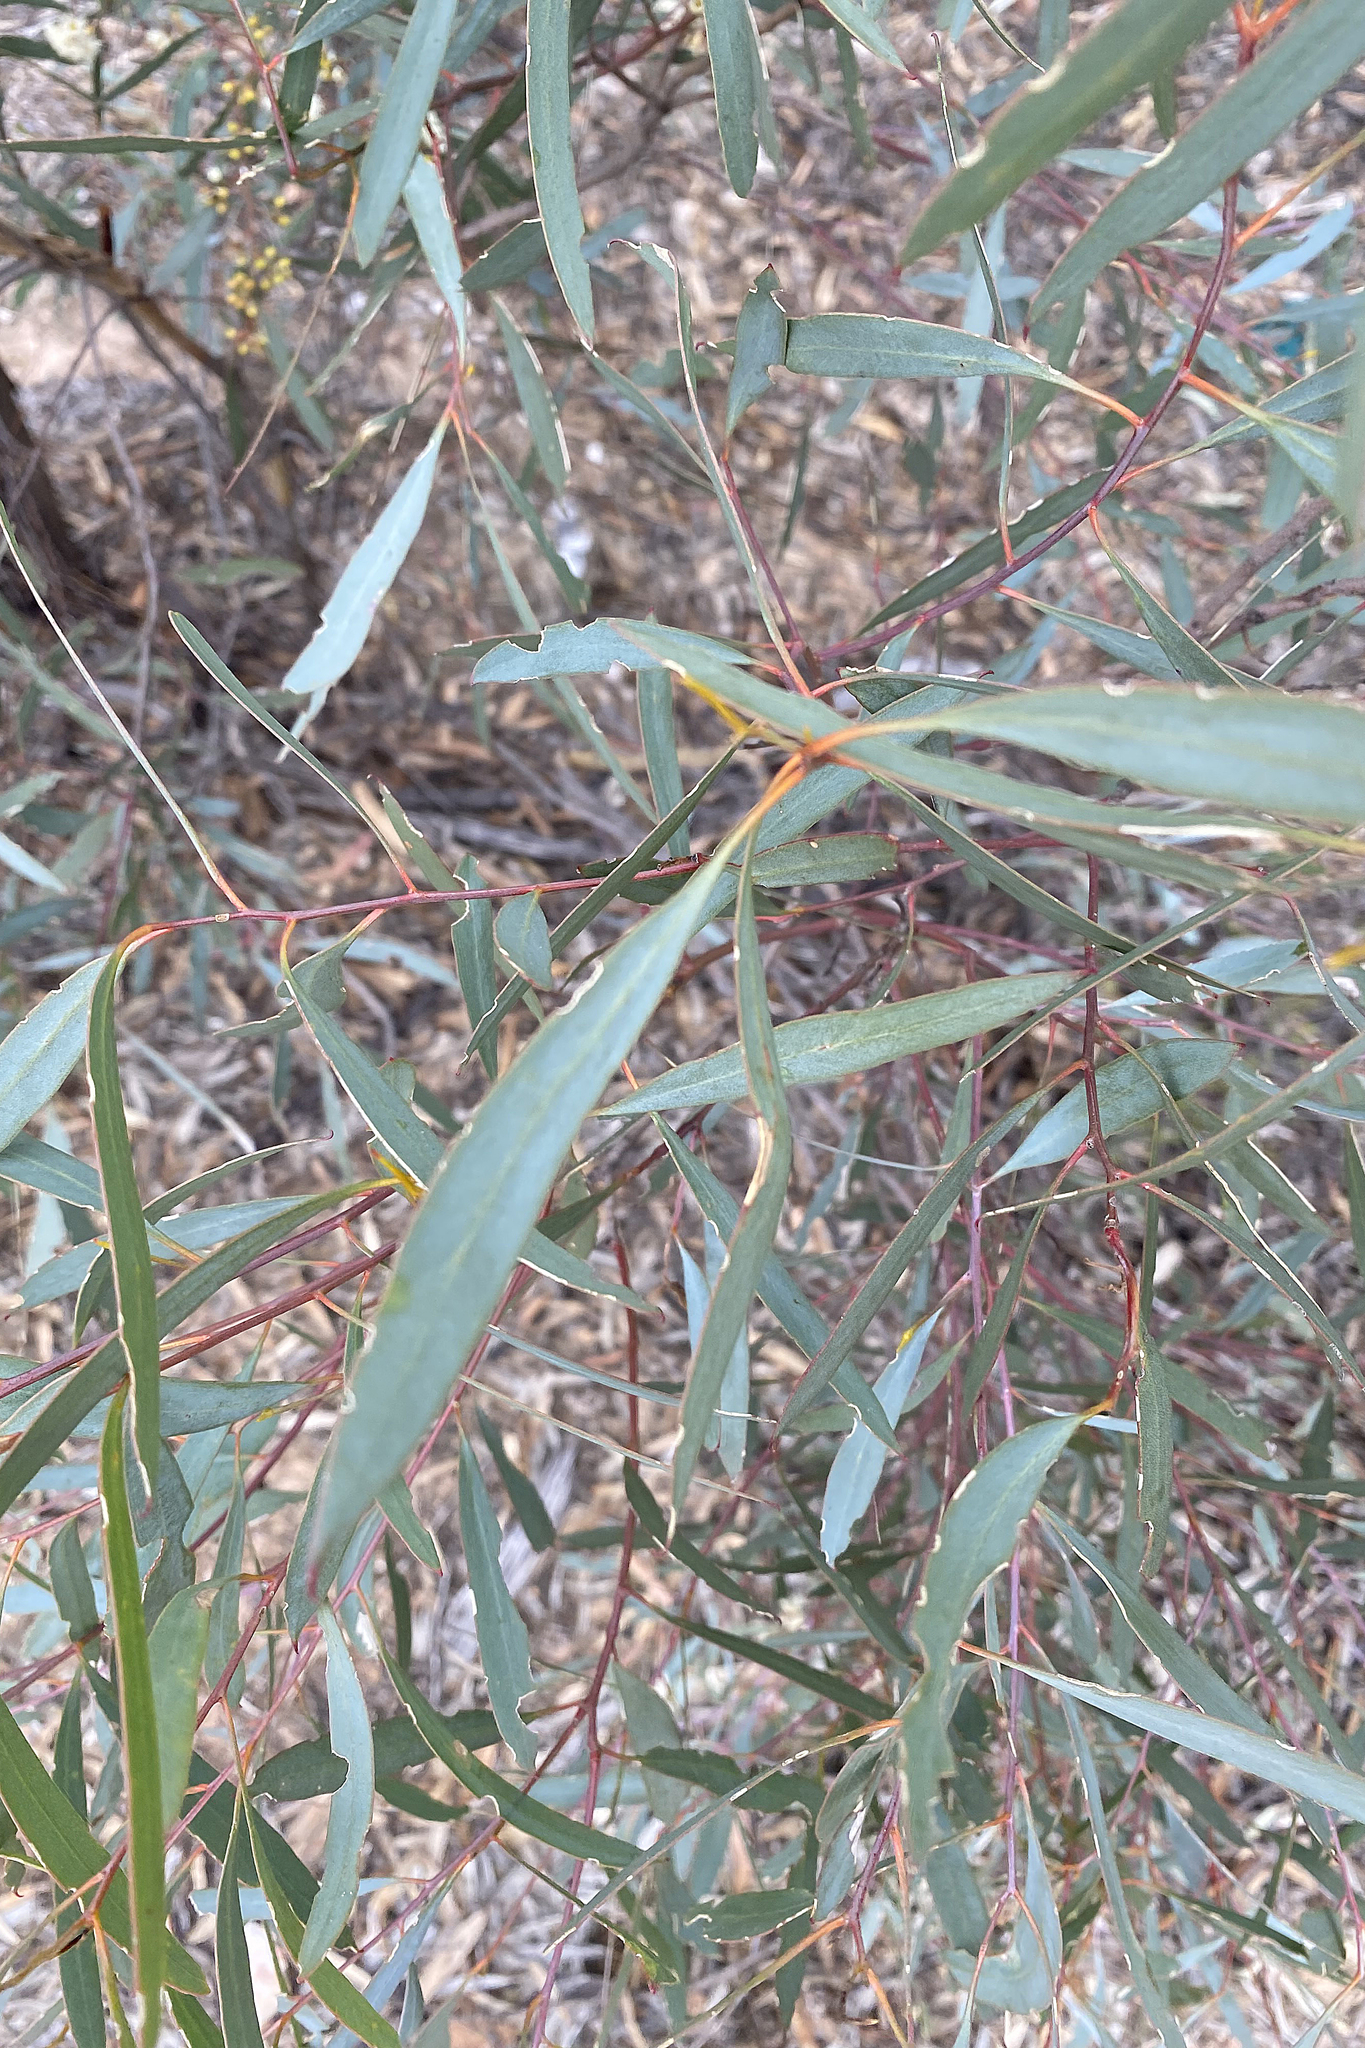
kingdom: Plantae
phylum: Tracheophyta
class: Magnoliopsida
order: Myrtales
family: Myrtaceae
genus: Eucalyptus
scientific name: Eucalyptus polybractea
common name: Blue mallee
